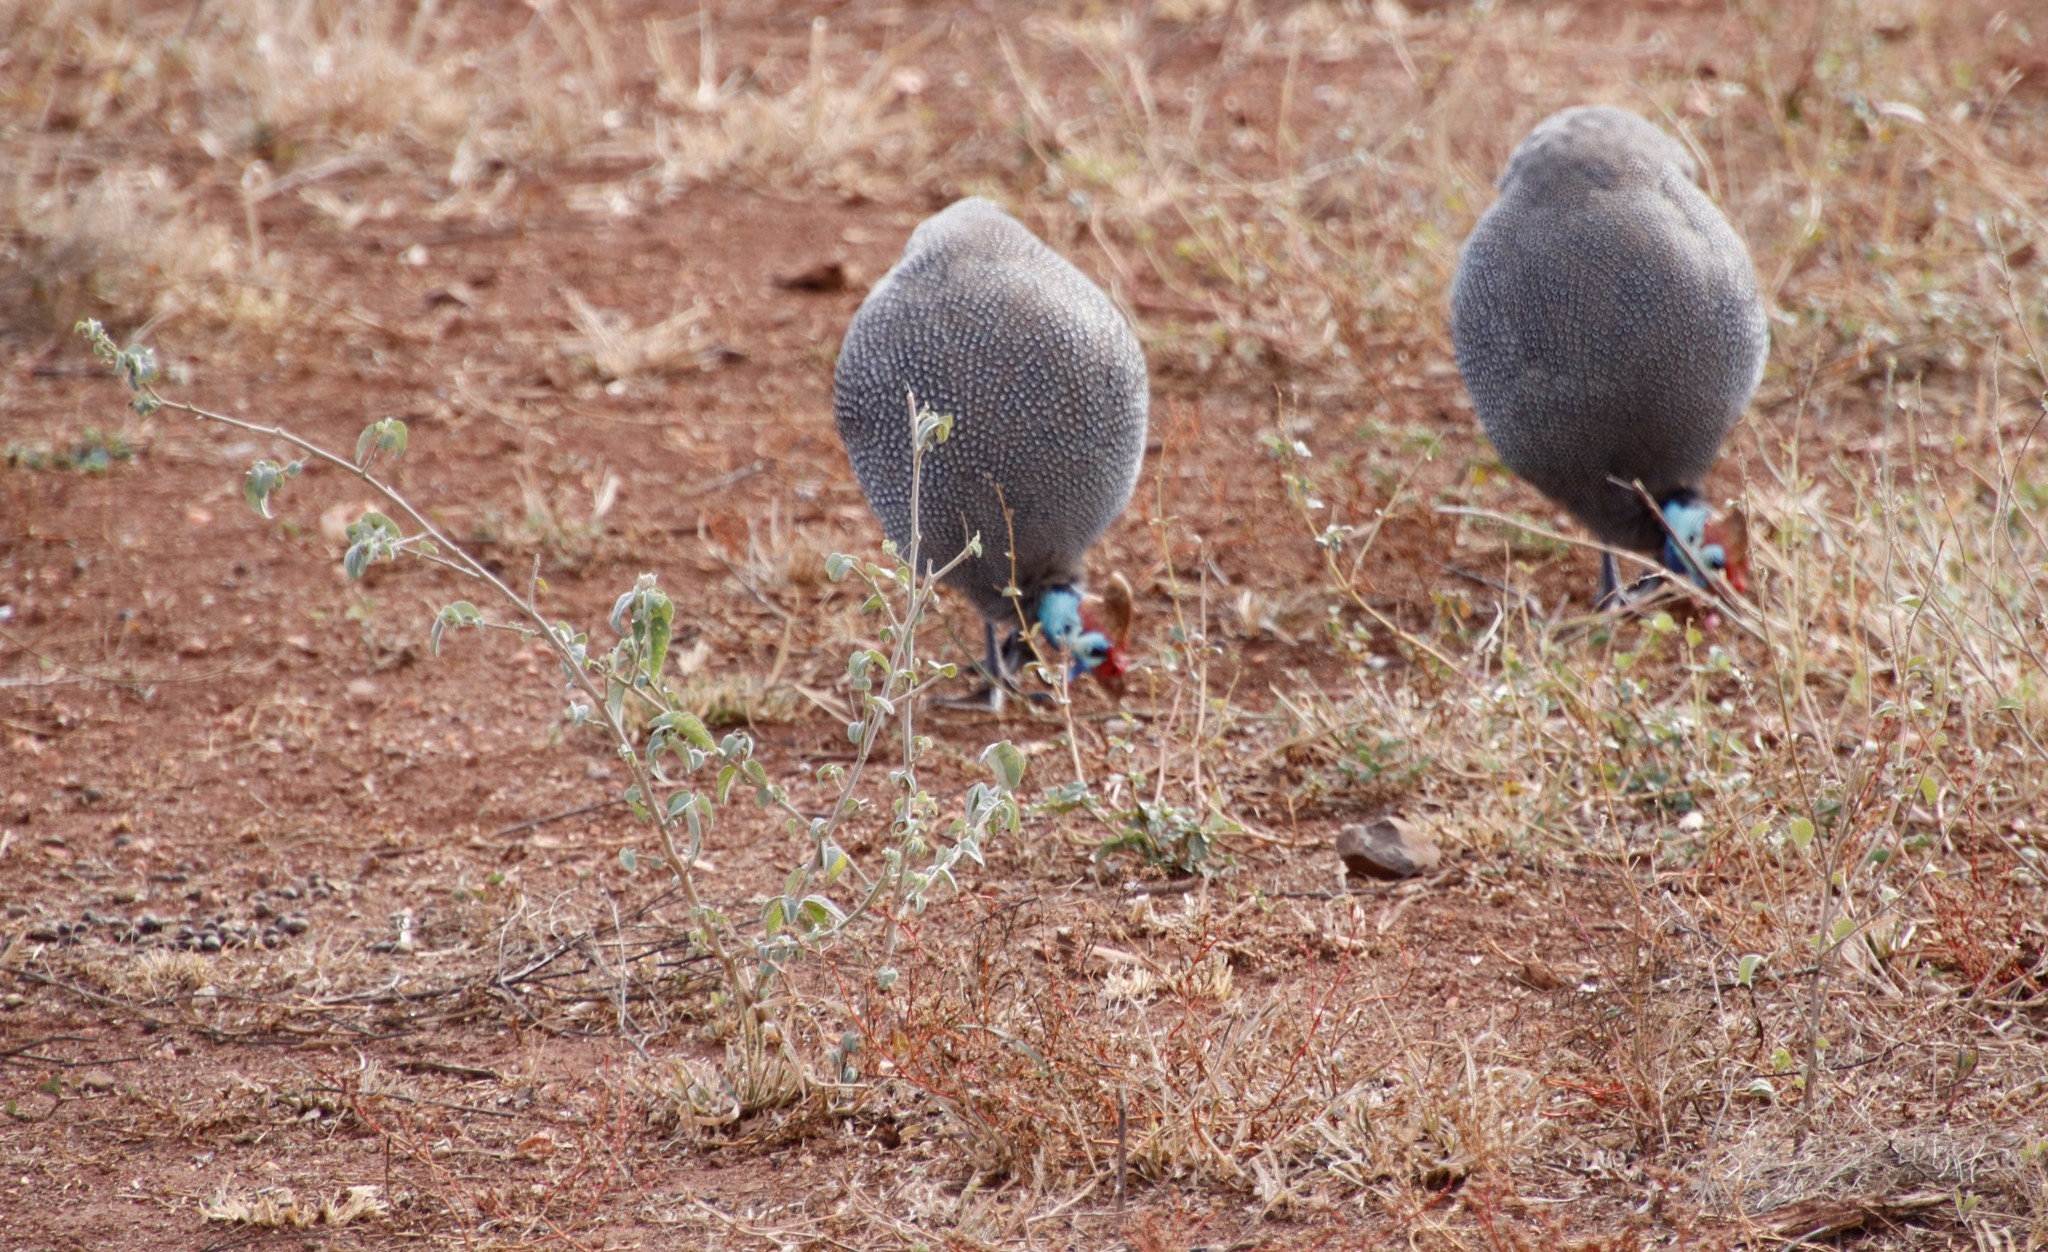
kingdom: Animalia
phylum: Chordata
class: Aves
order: Galliformes
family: Numididae
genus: Numida
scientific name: Numida meleagris
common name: Helmeted guineafowl
